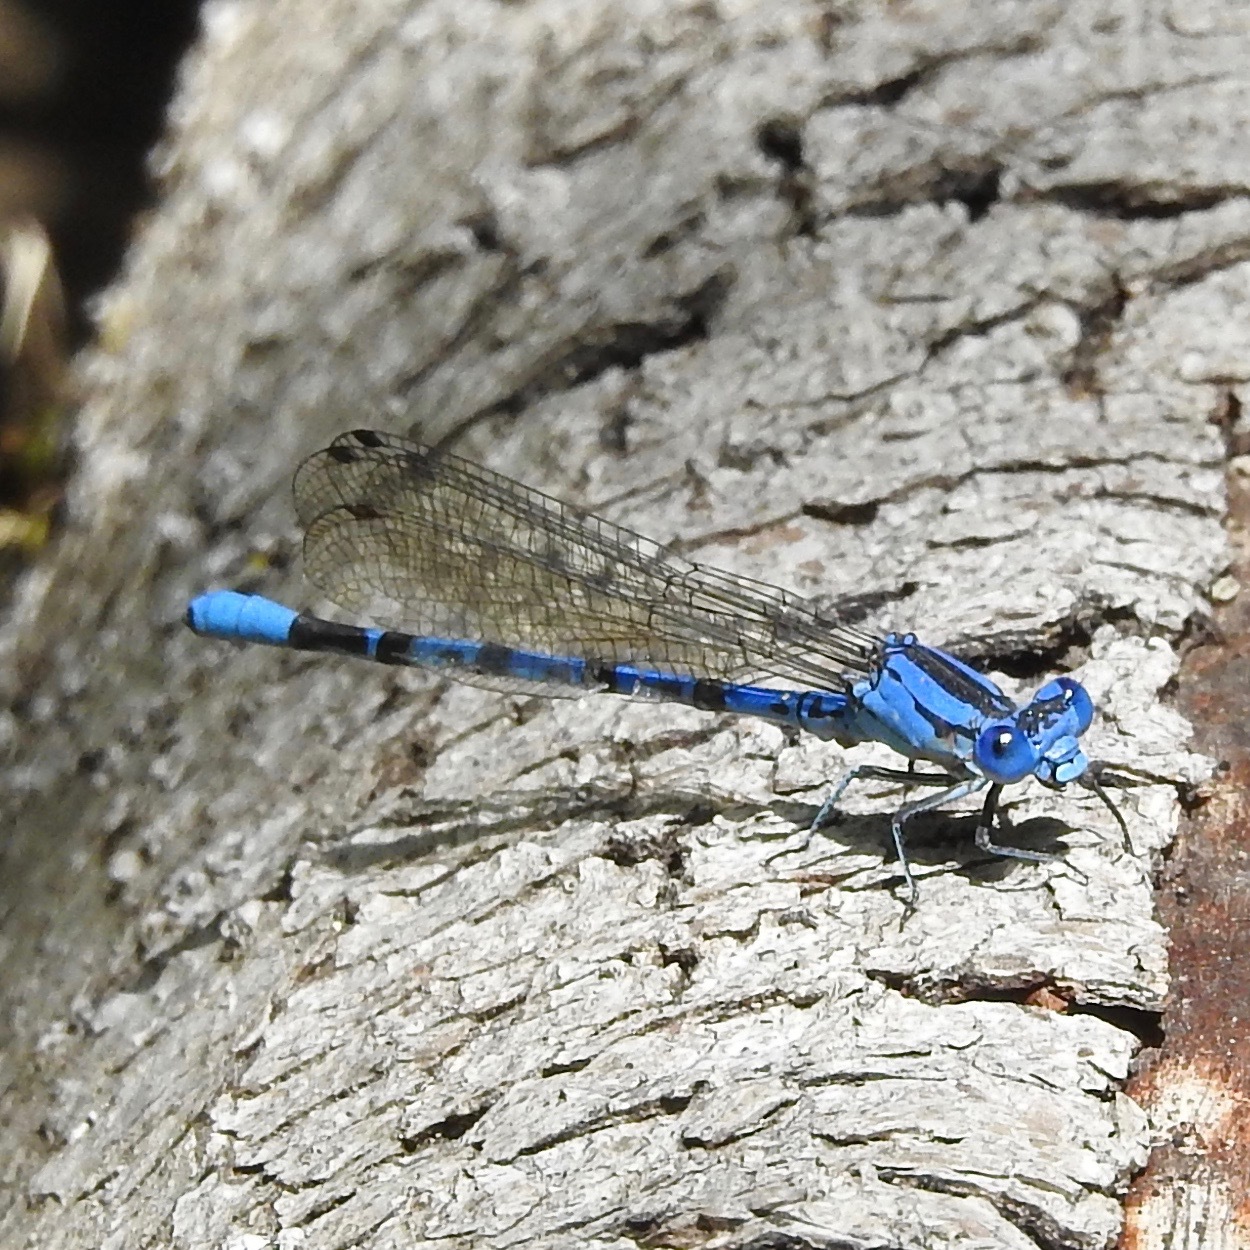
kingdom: Animalia
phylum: Arthropoda
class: Insecta
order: Odonata
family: Coenagrionidae
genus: Argia
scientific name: Argia vivida
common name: Vivid dancer
